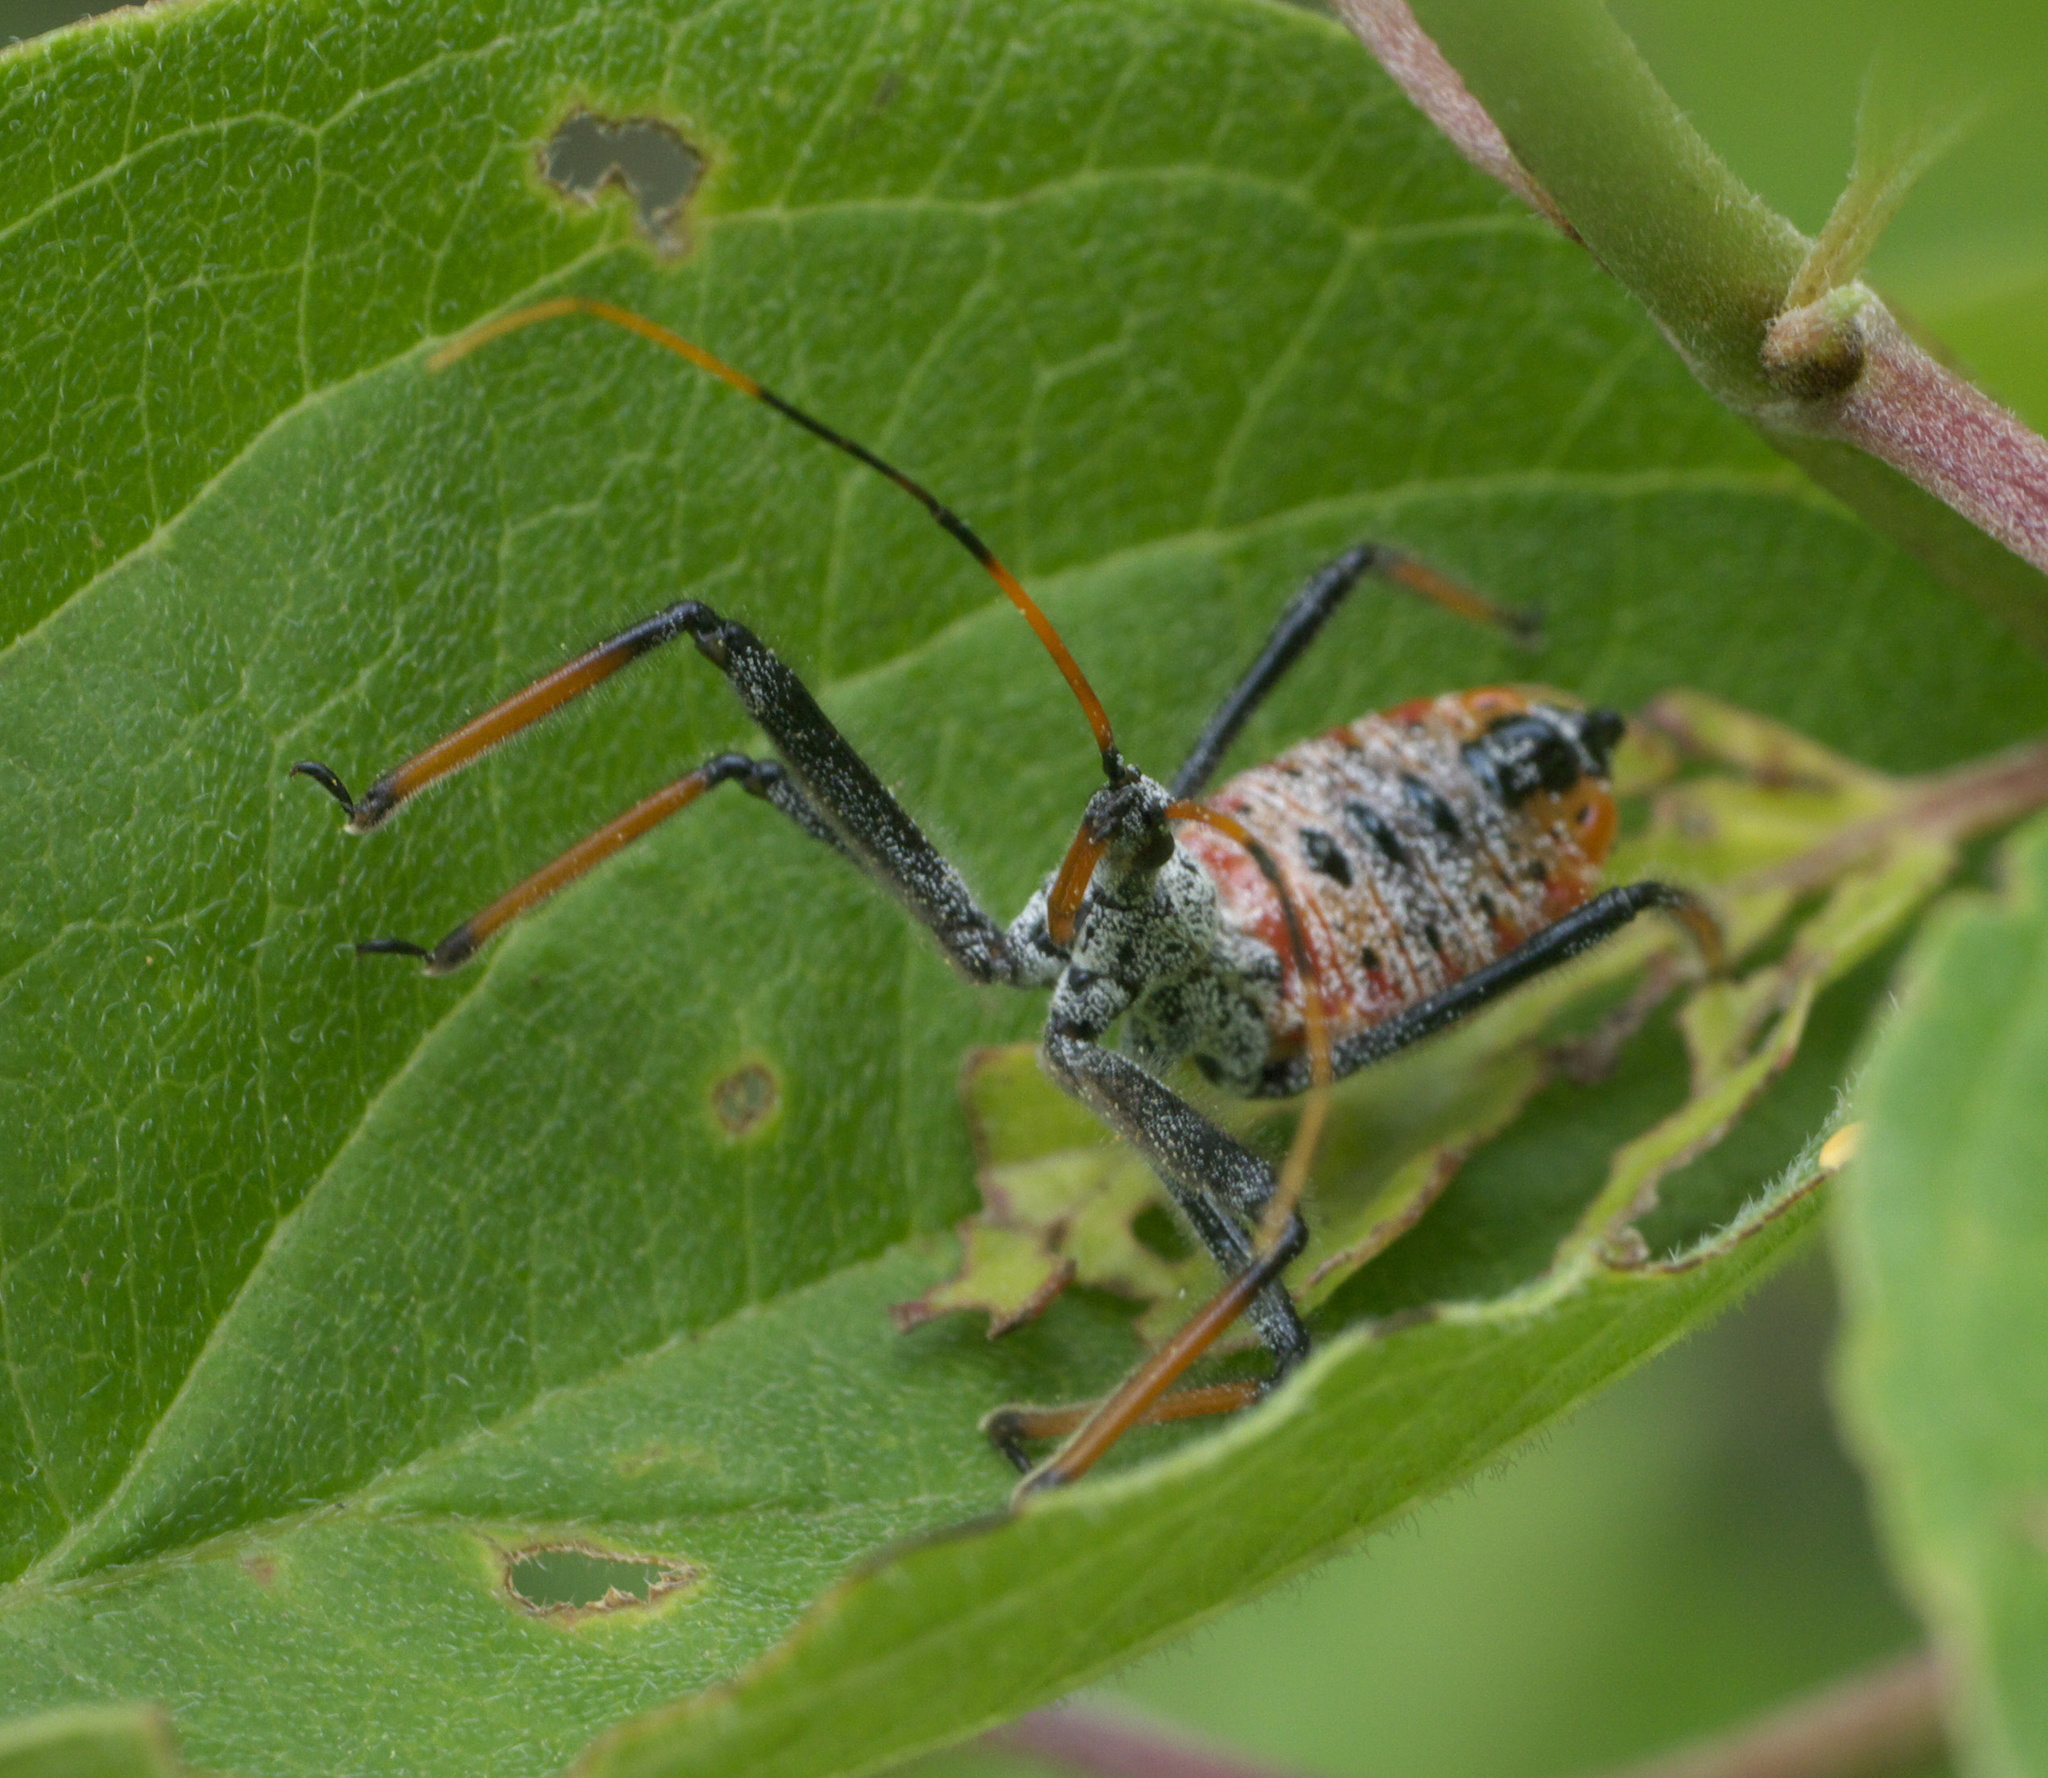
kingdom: Animalia
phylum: Arthropoda
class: Insecta
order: Hemiptera
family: Reduviidae
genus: Arilus
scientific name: Arilus cristatus
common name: North american wheel bug
